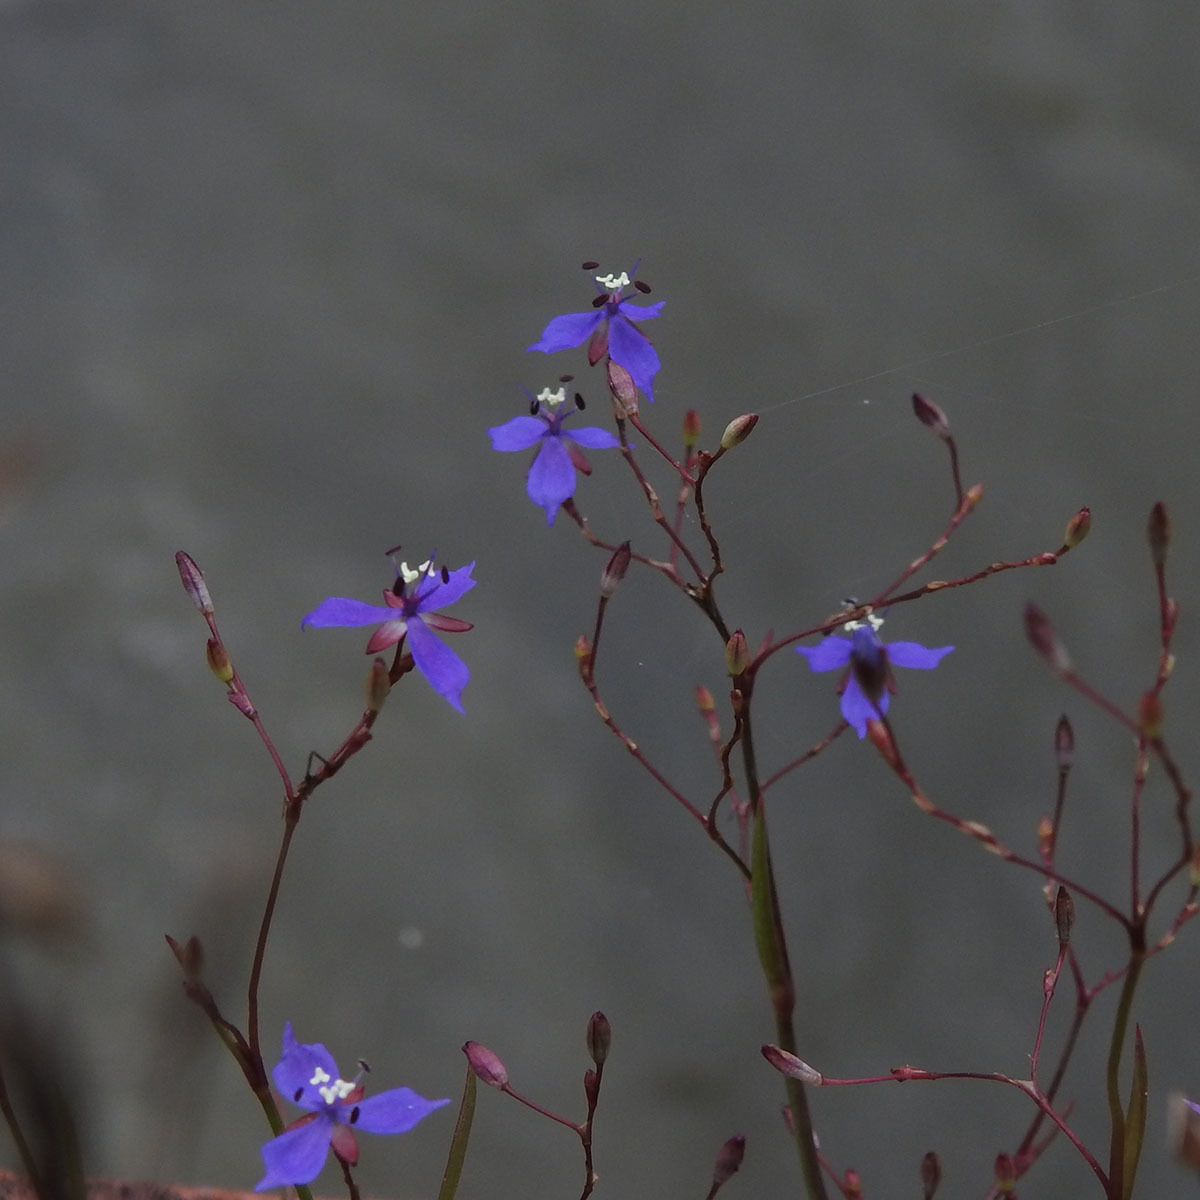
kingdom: Plantae
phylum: Tracheophyta
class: Liliopsida
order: Commelinales
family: Commelinaceae
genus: Murdannia
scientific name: Murdannia semiteres
